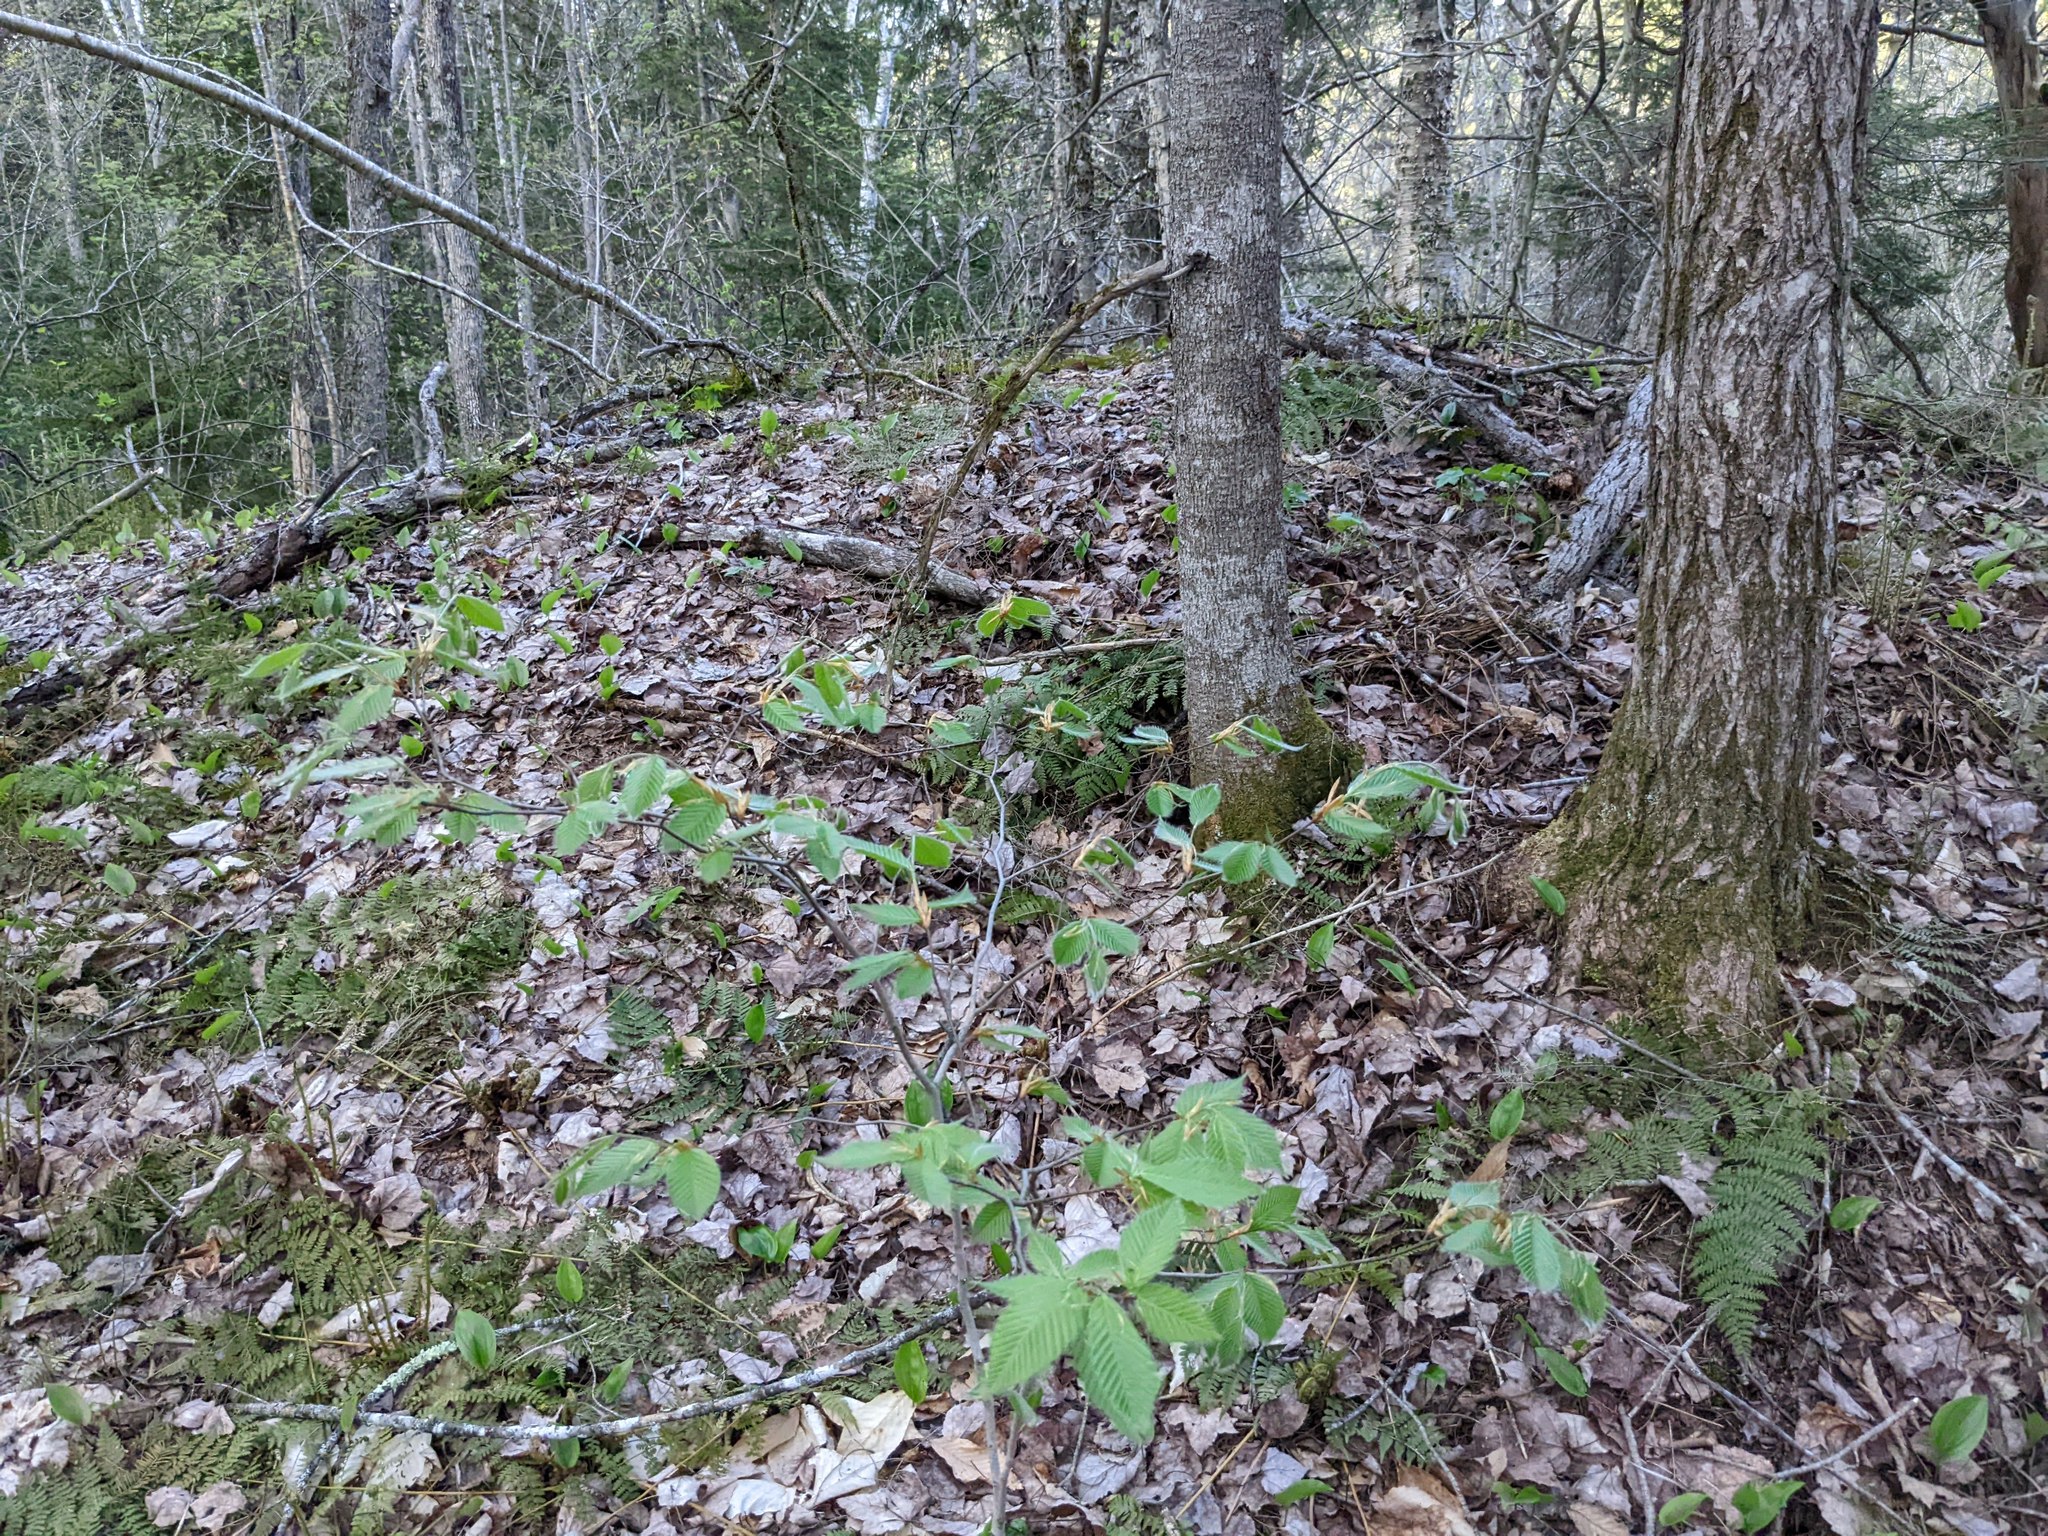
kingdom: Plantae
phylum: Tracheophyta
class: Magnoliopsida
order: Fagales
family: Fagaceae
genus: Fagus
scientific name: Fagus grandifolia
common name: American beech
